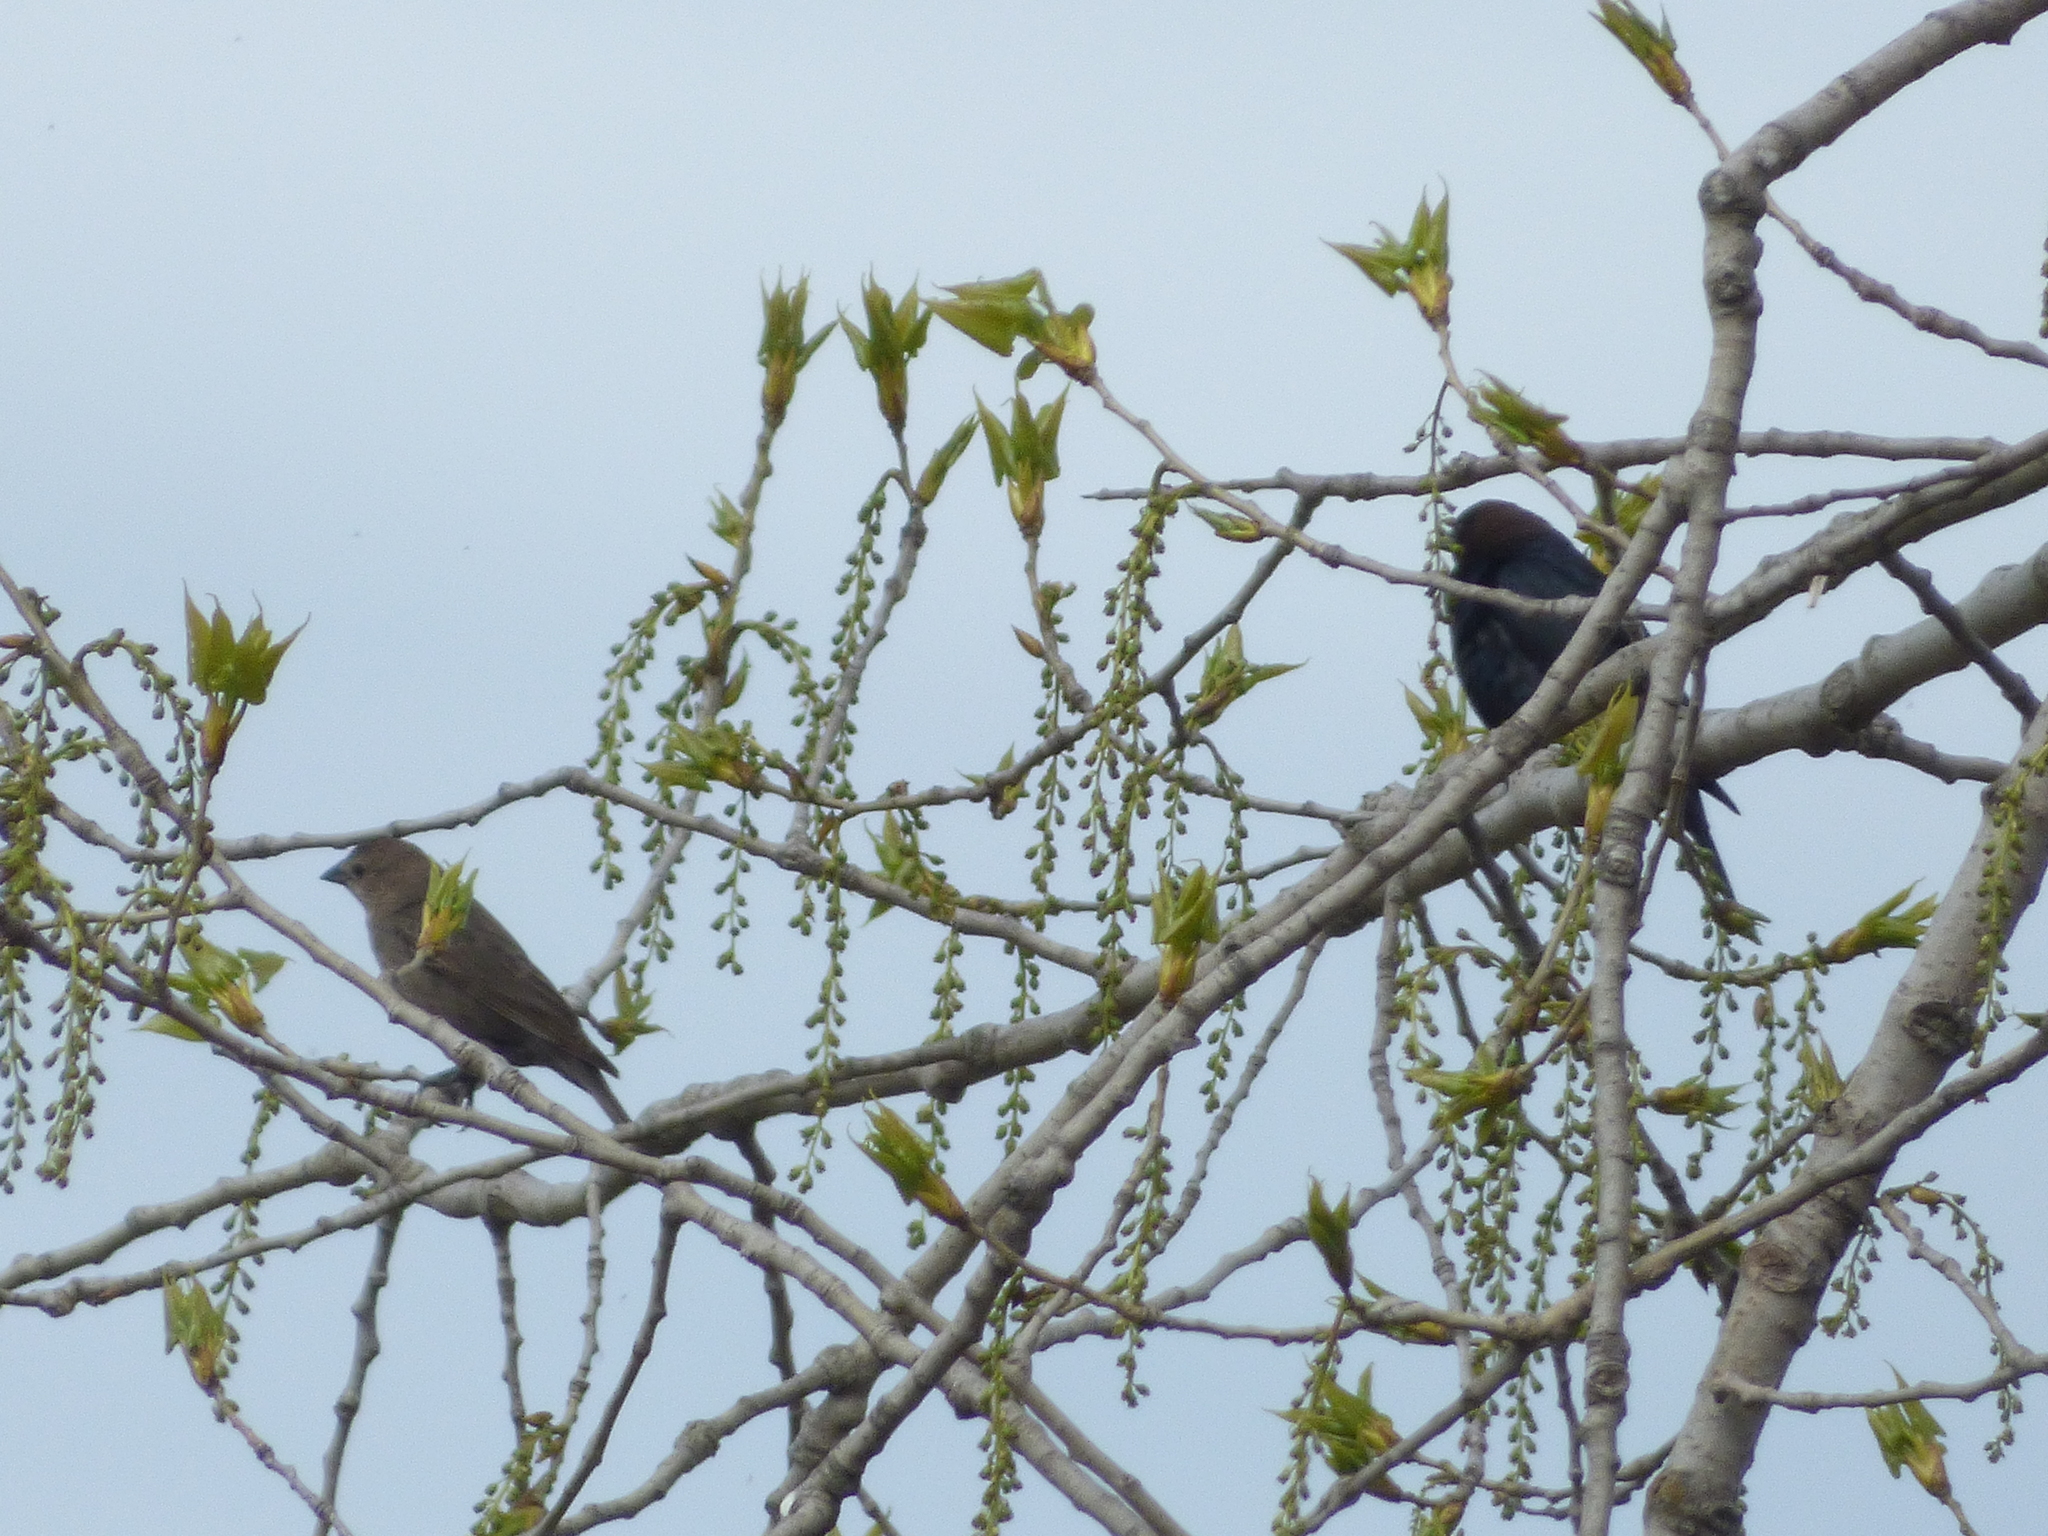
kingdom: Animalia
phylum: Chordata
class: Aves
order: Passeriformes
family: Icteridae
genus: Molothrus
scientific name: Molothrus ater
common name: Brown-headed cowbird
